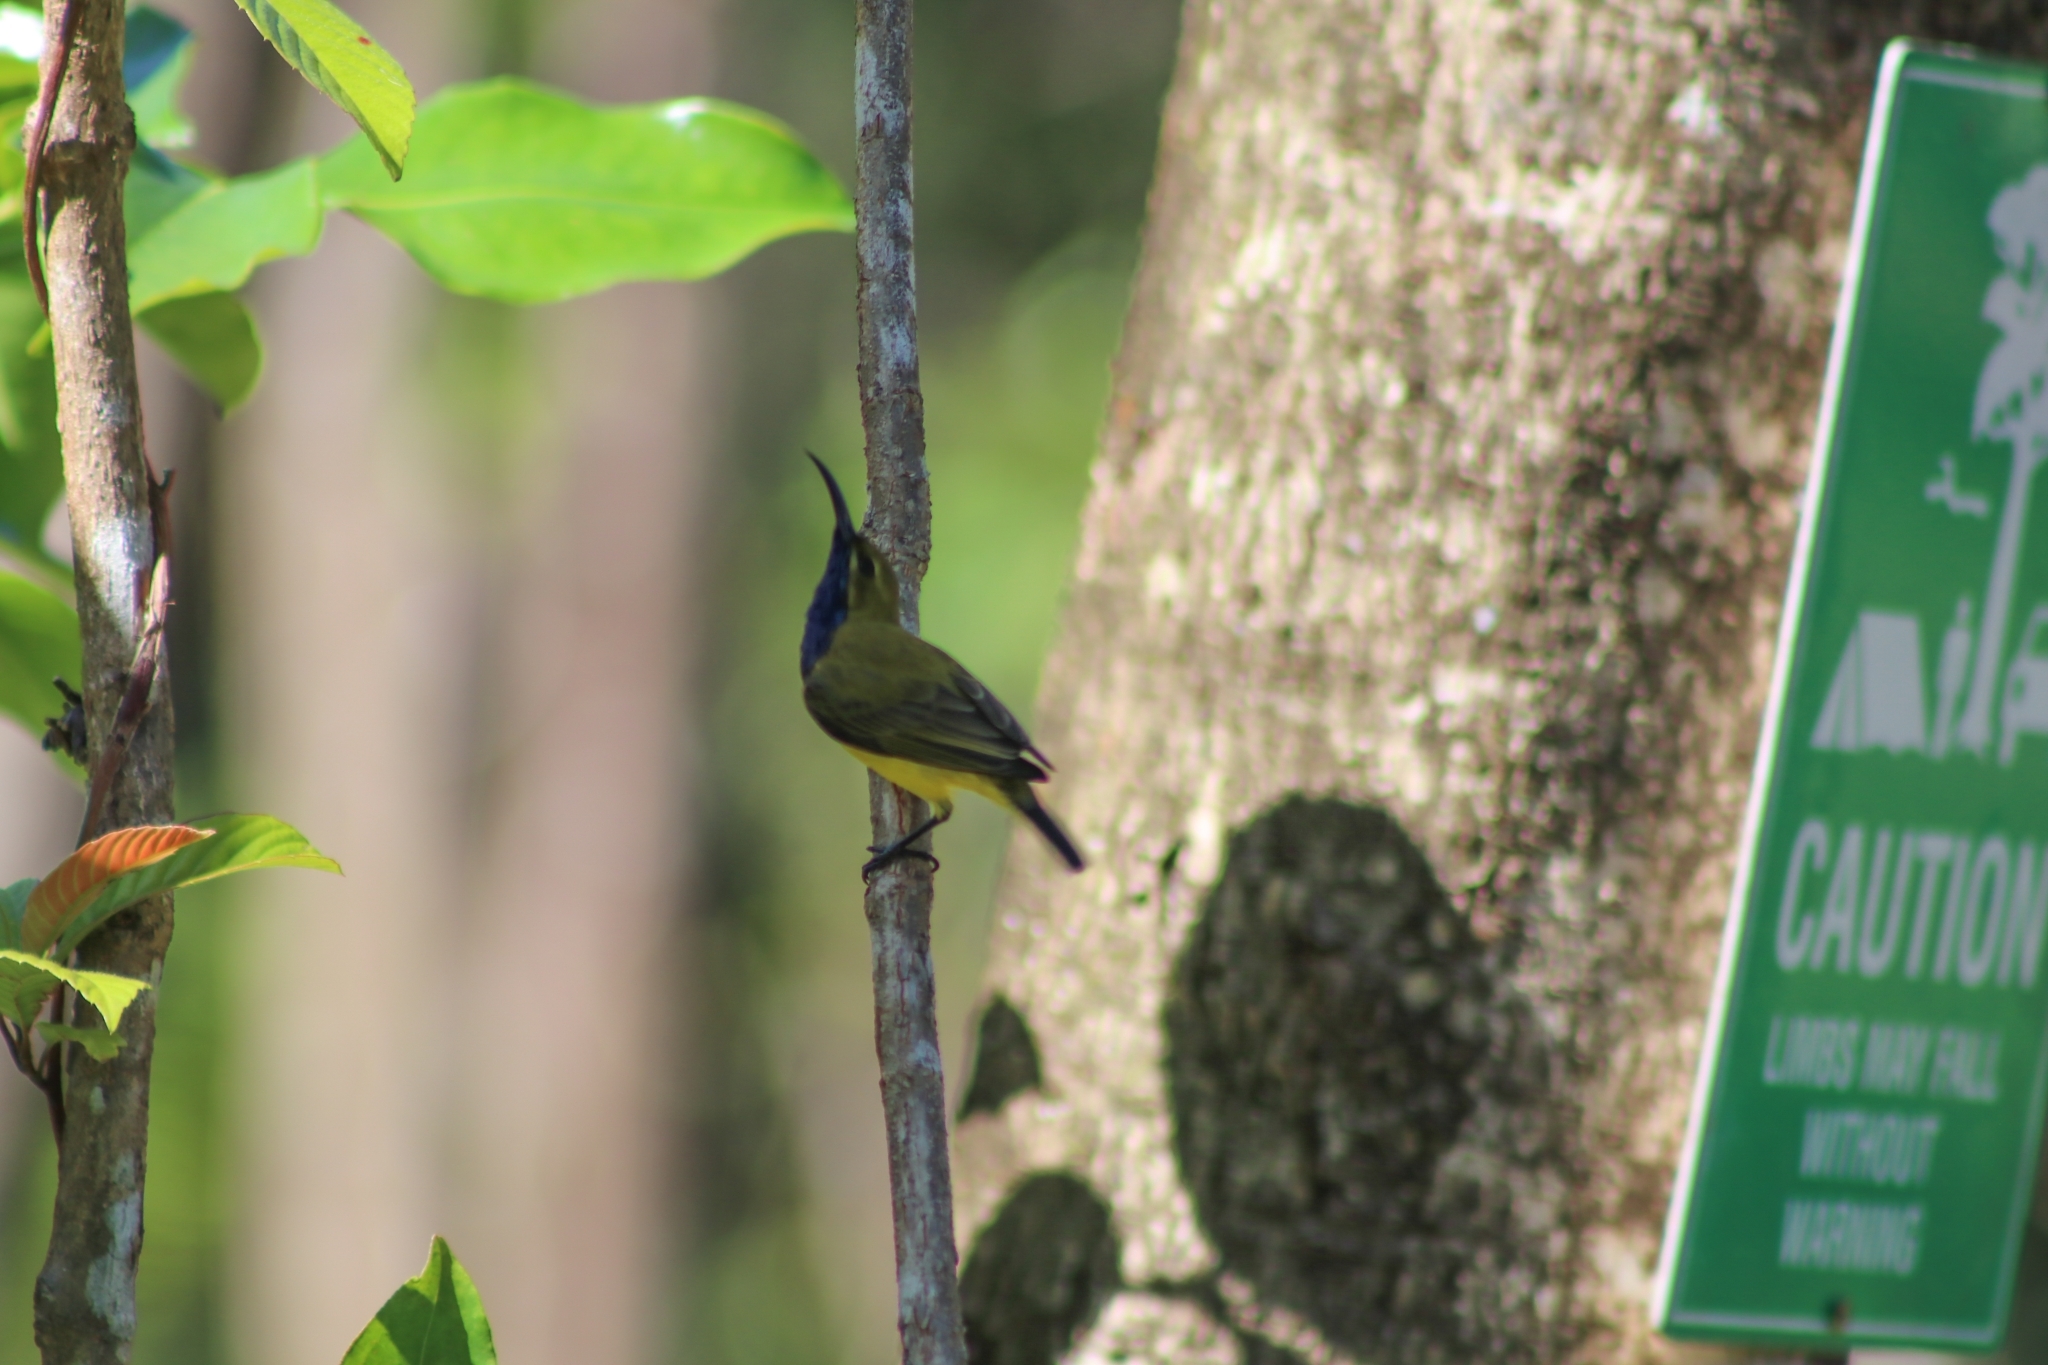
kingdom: Animalia
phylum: Chordata
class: Aves
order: Passeriformes
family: Nectariniidae
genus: Cinnyris
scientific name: Cinnyris
